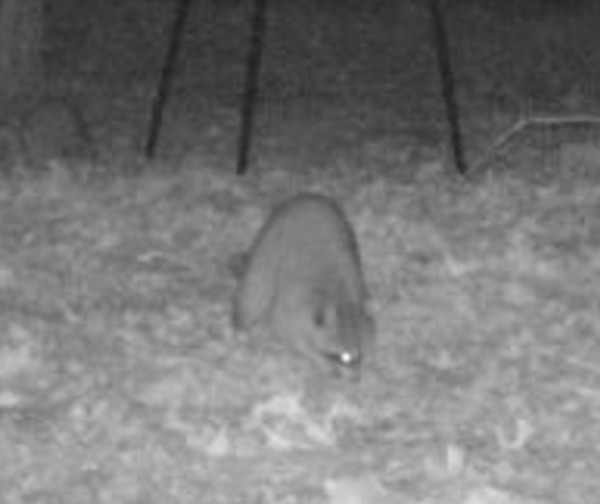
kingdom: Animalia
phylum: Chordata
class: Mammalia
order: Carnivora
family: Procyonidae
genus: Procyon
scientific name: Procyon lotor
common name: Raccoon
